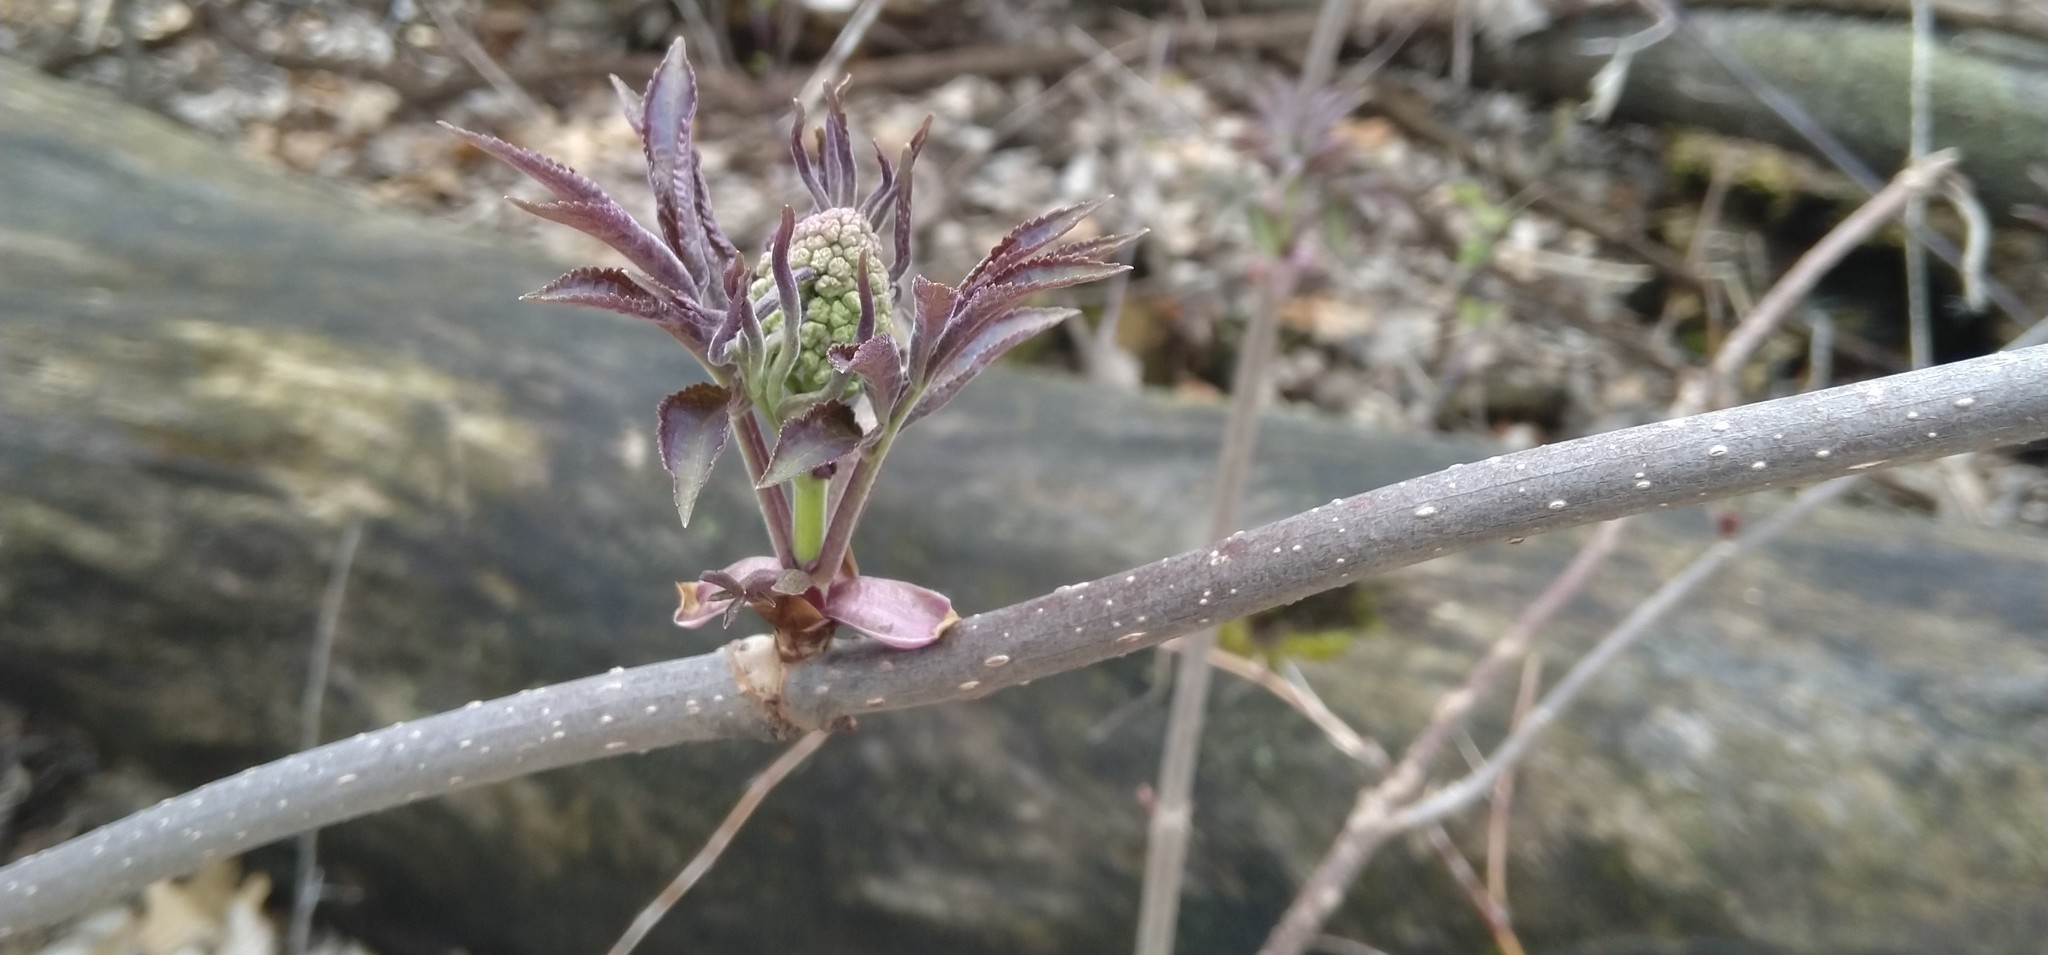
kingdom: Plantae
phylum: Tracheophyta
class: Magnoliopsida
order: Dipsacales
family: Viburnaceae
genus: Sambucus
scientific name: Sambucus racemosa
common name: Red-berried elder
